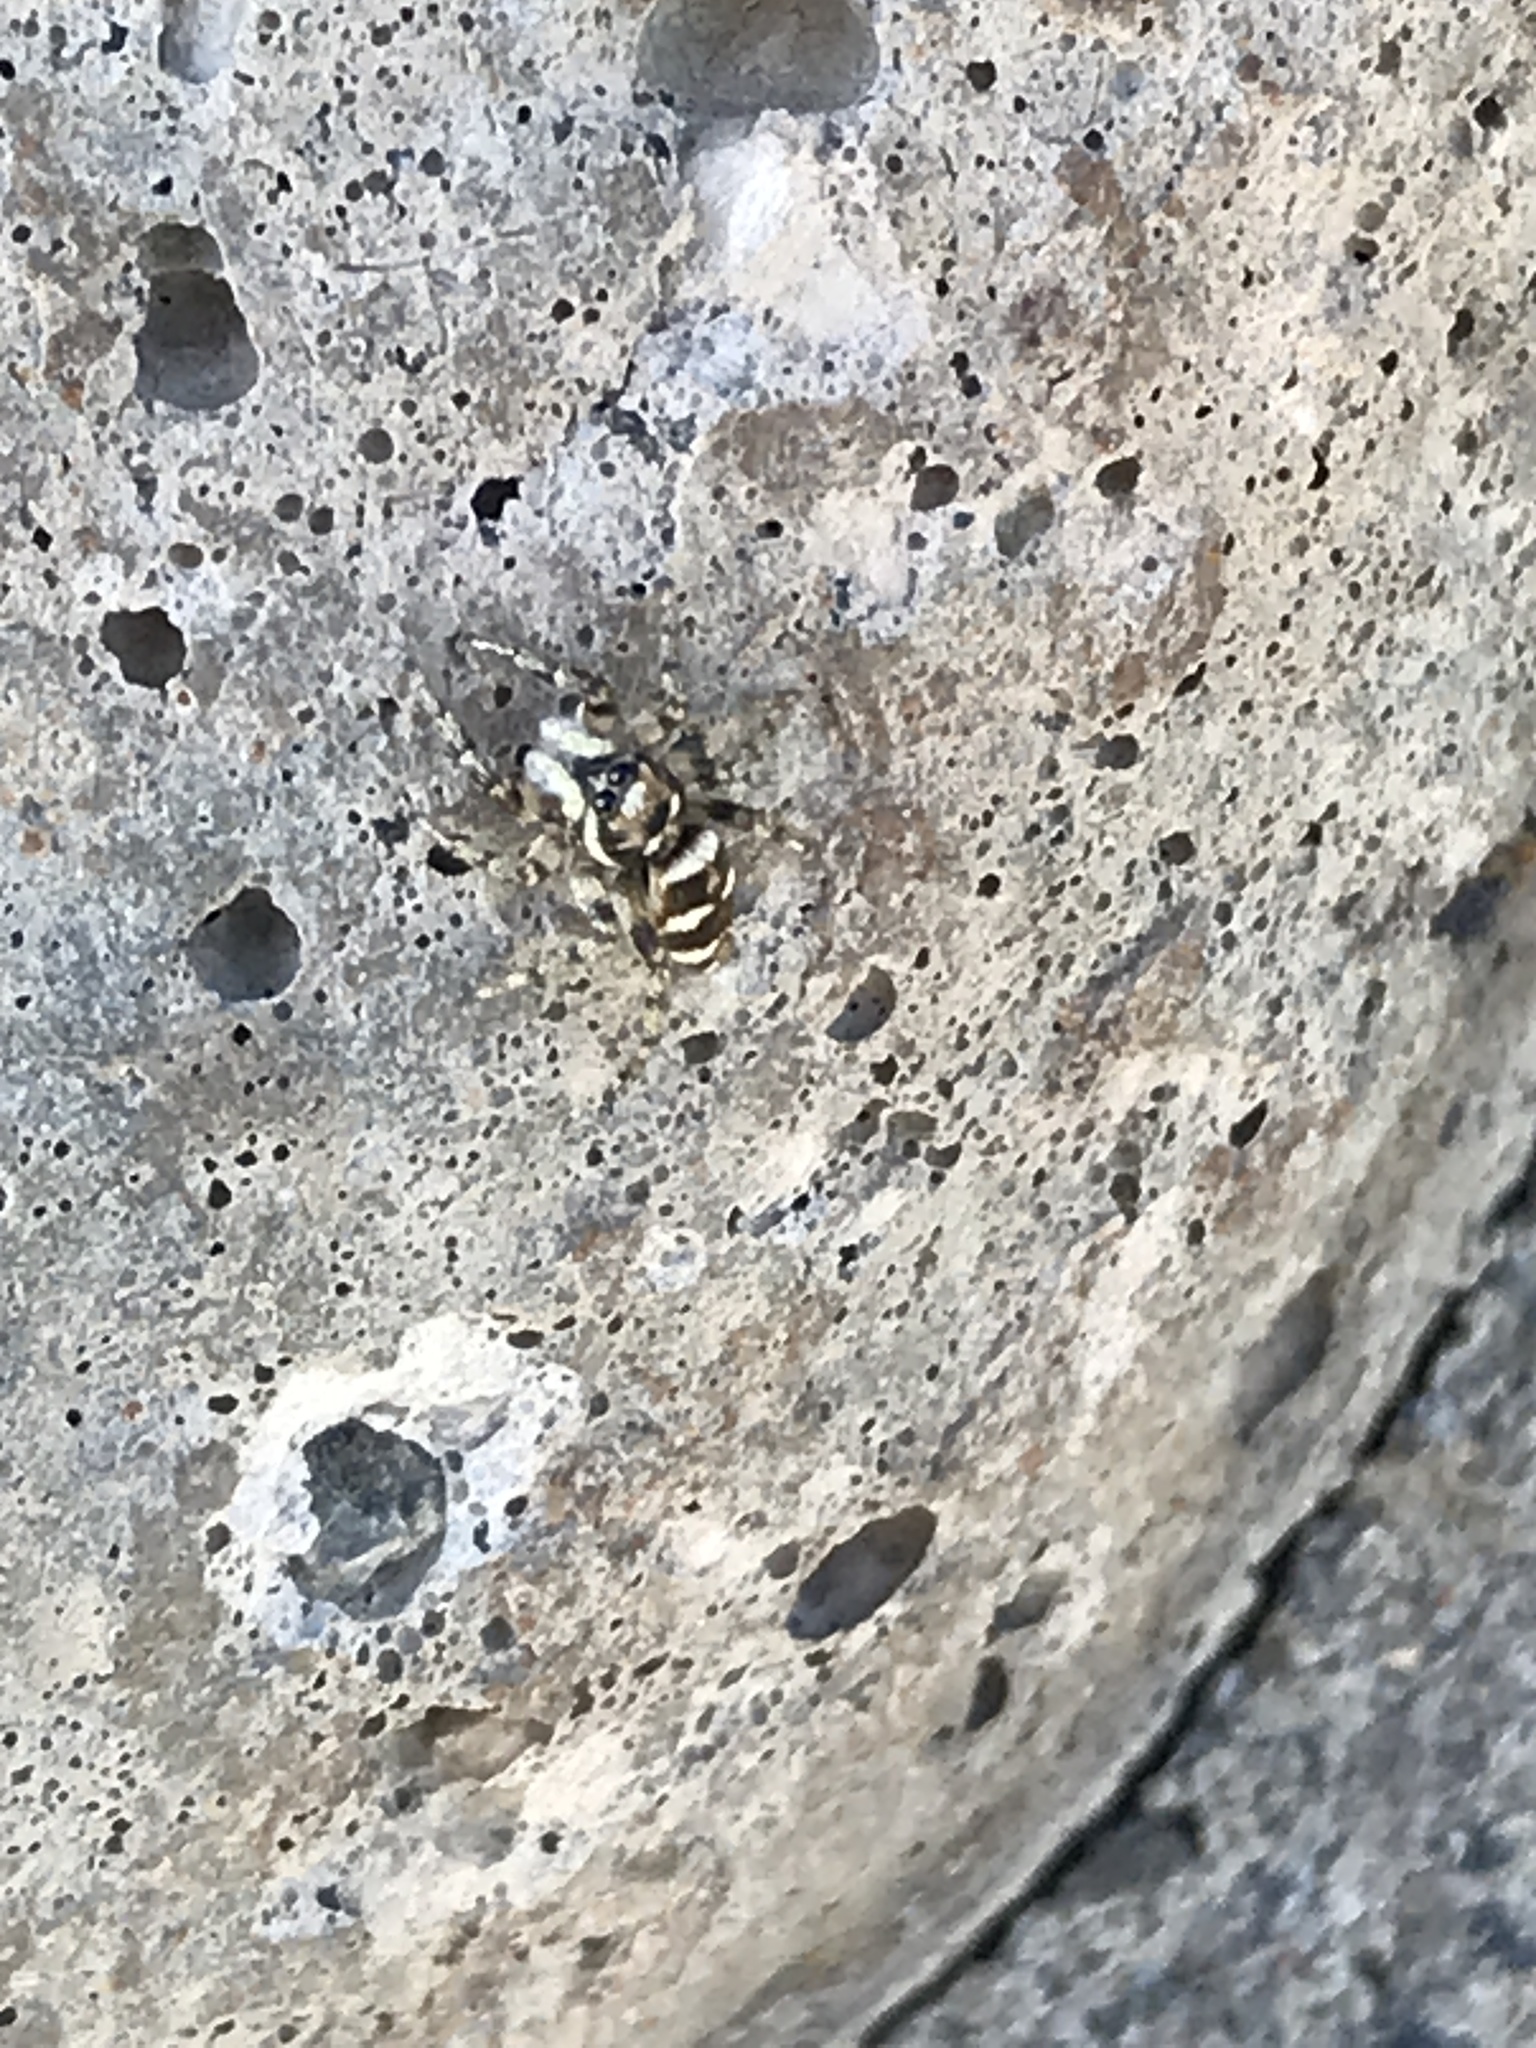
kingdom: Animalia
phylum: Arthropoda
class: Arachnida
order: Araneae
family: Salticidae
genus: Salticus
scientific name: Salticus scenicus
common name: Zebra jumper
